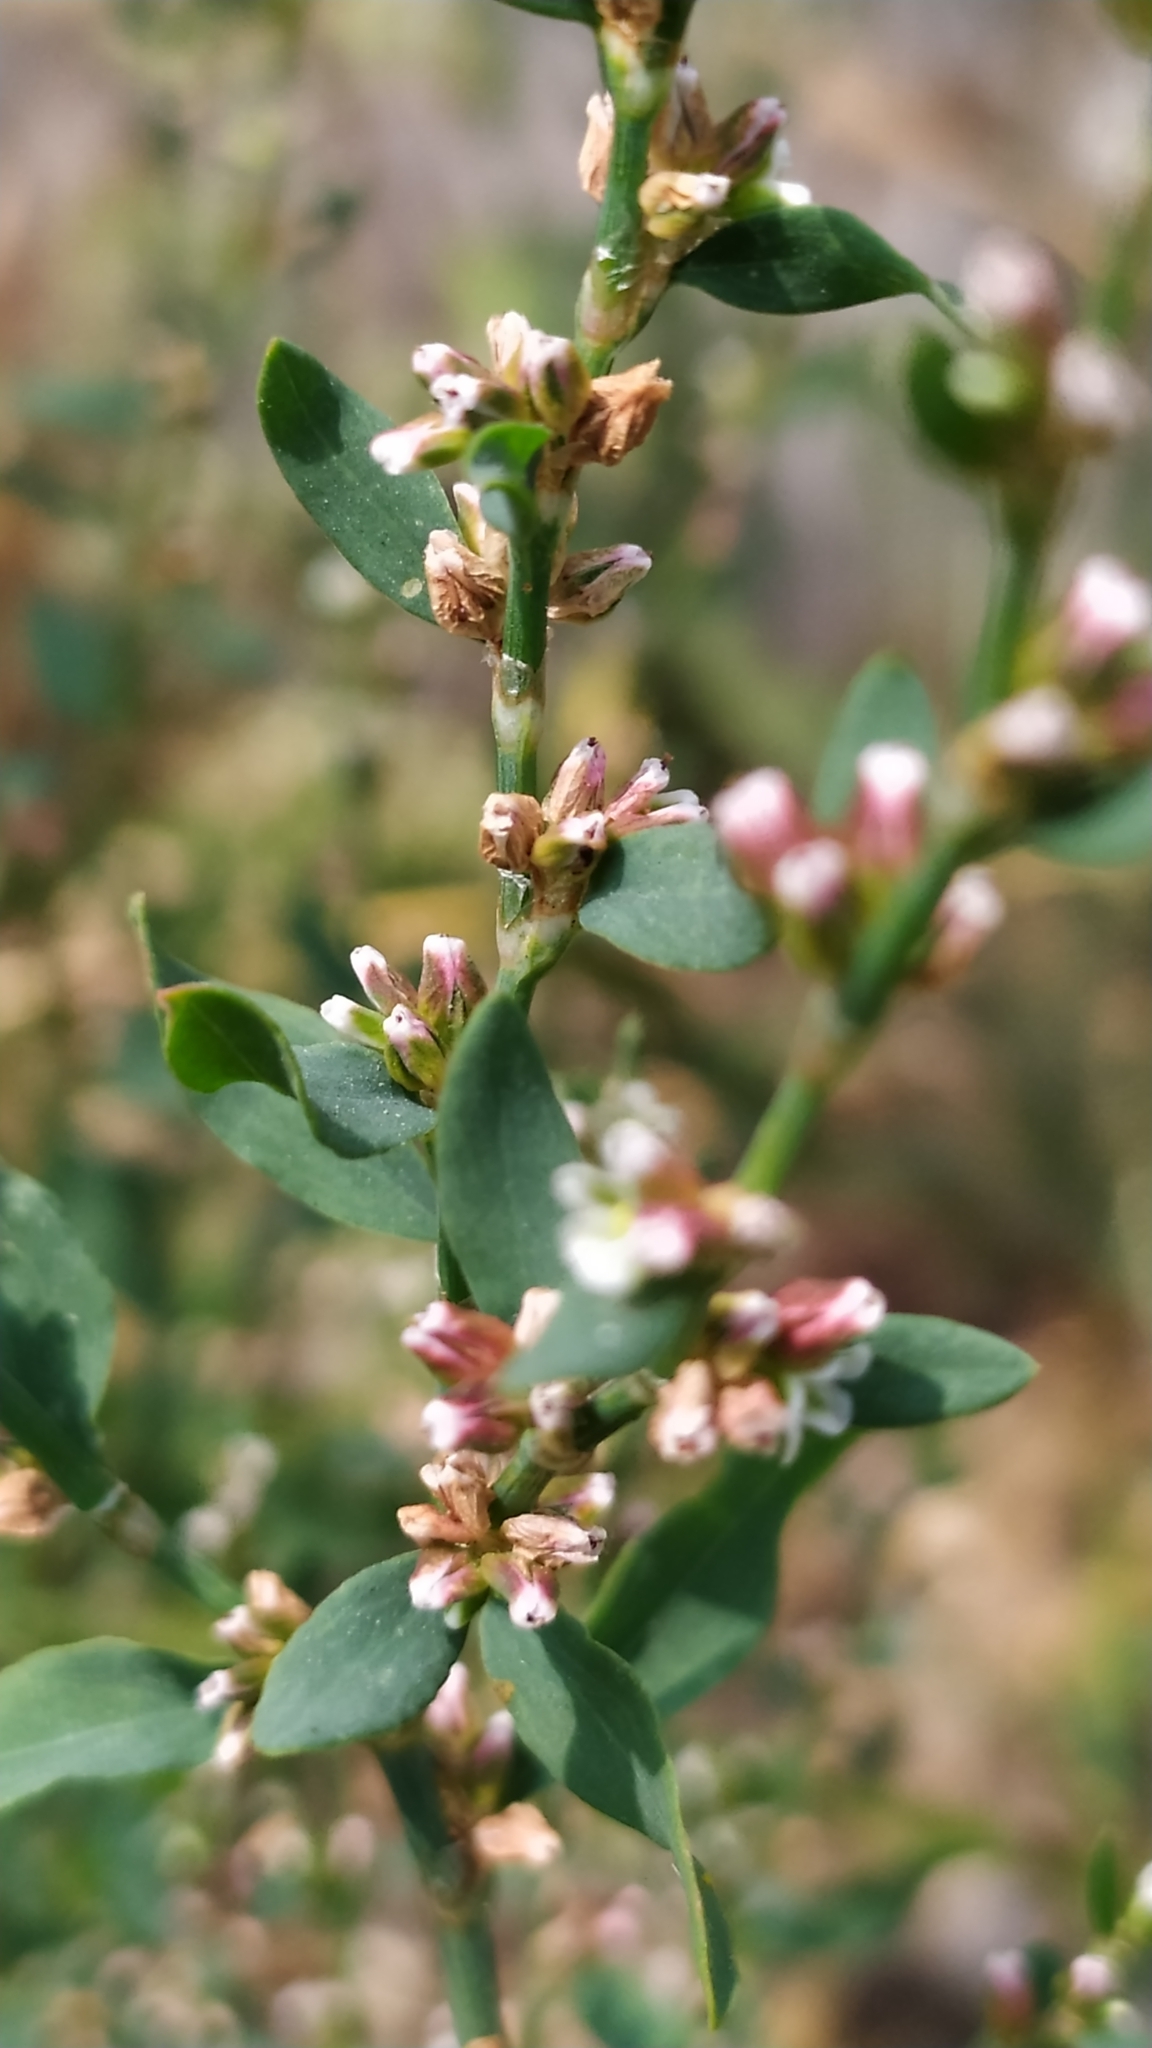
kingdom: Plantae
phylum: Tracheophyta
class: Magnoliopsida
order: Caryophyllales
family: Polygonaceae
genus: Polygonum
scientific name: Polygonum aviculare
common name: Prostrate knotweed
